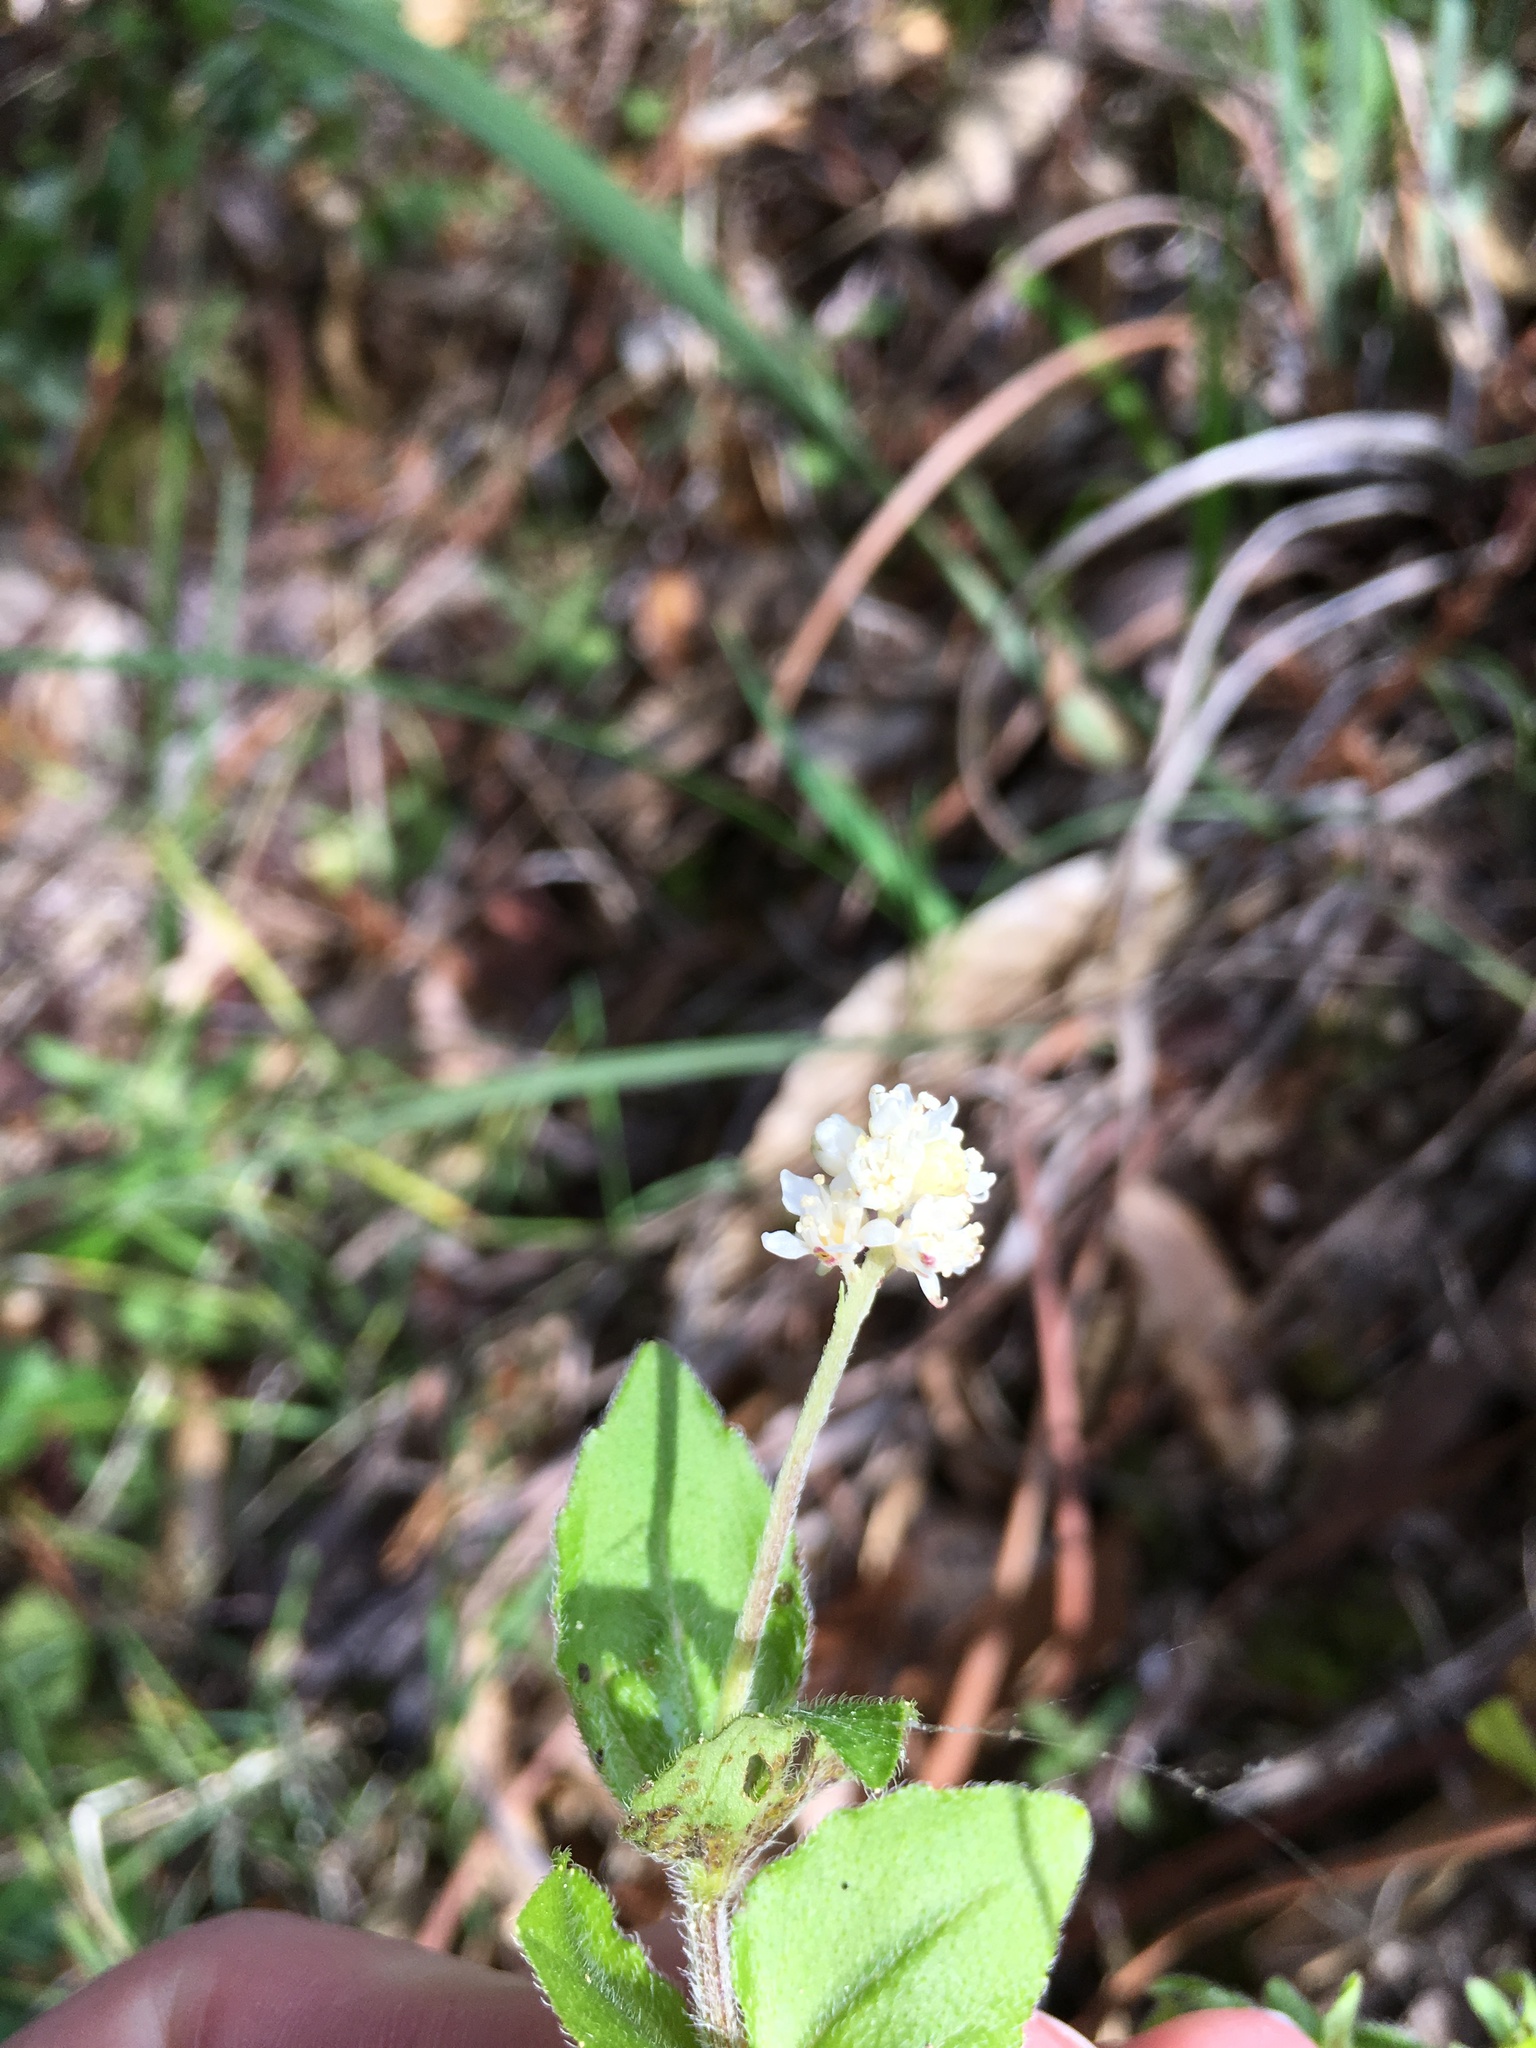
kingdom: Plantae
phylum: Tracheophyta
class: Magnoliopsida
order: Cornales
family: Hydrangeaceae
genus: Whipplea
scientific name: Whipplea modesta
